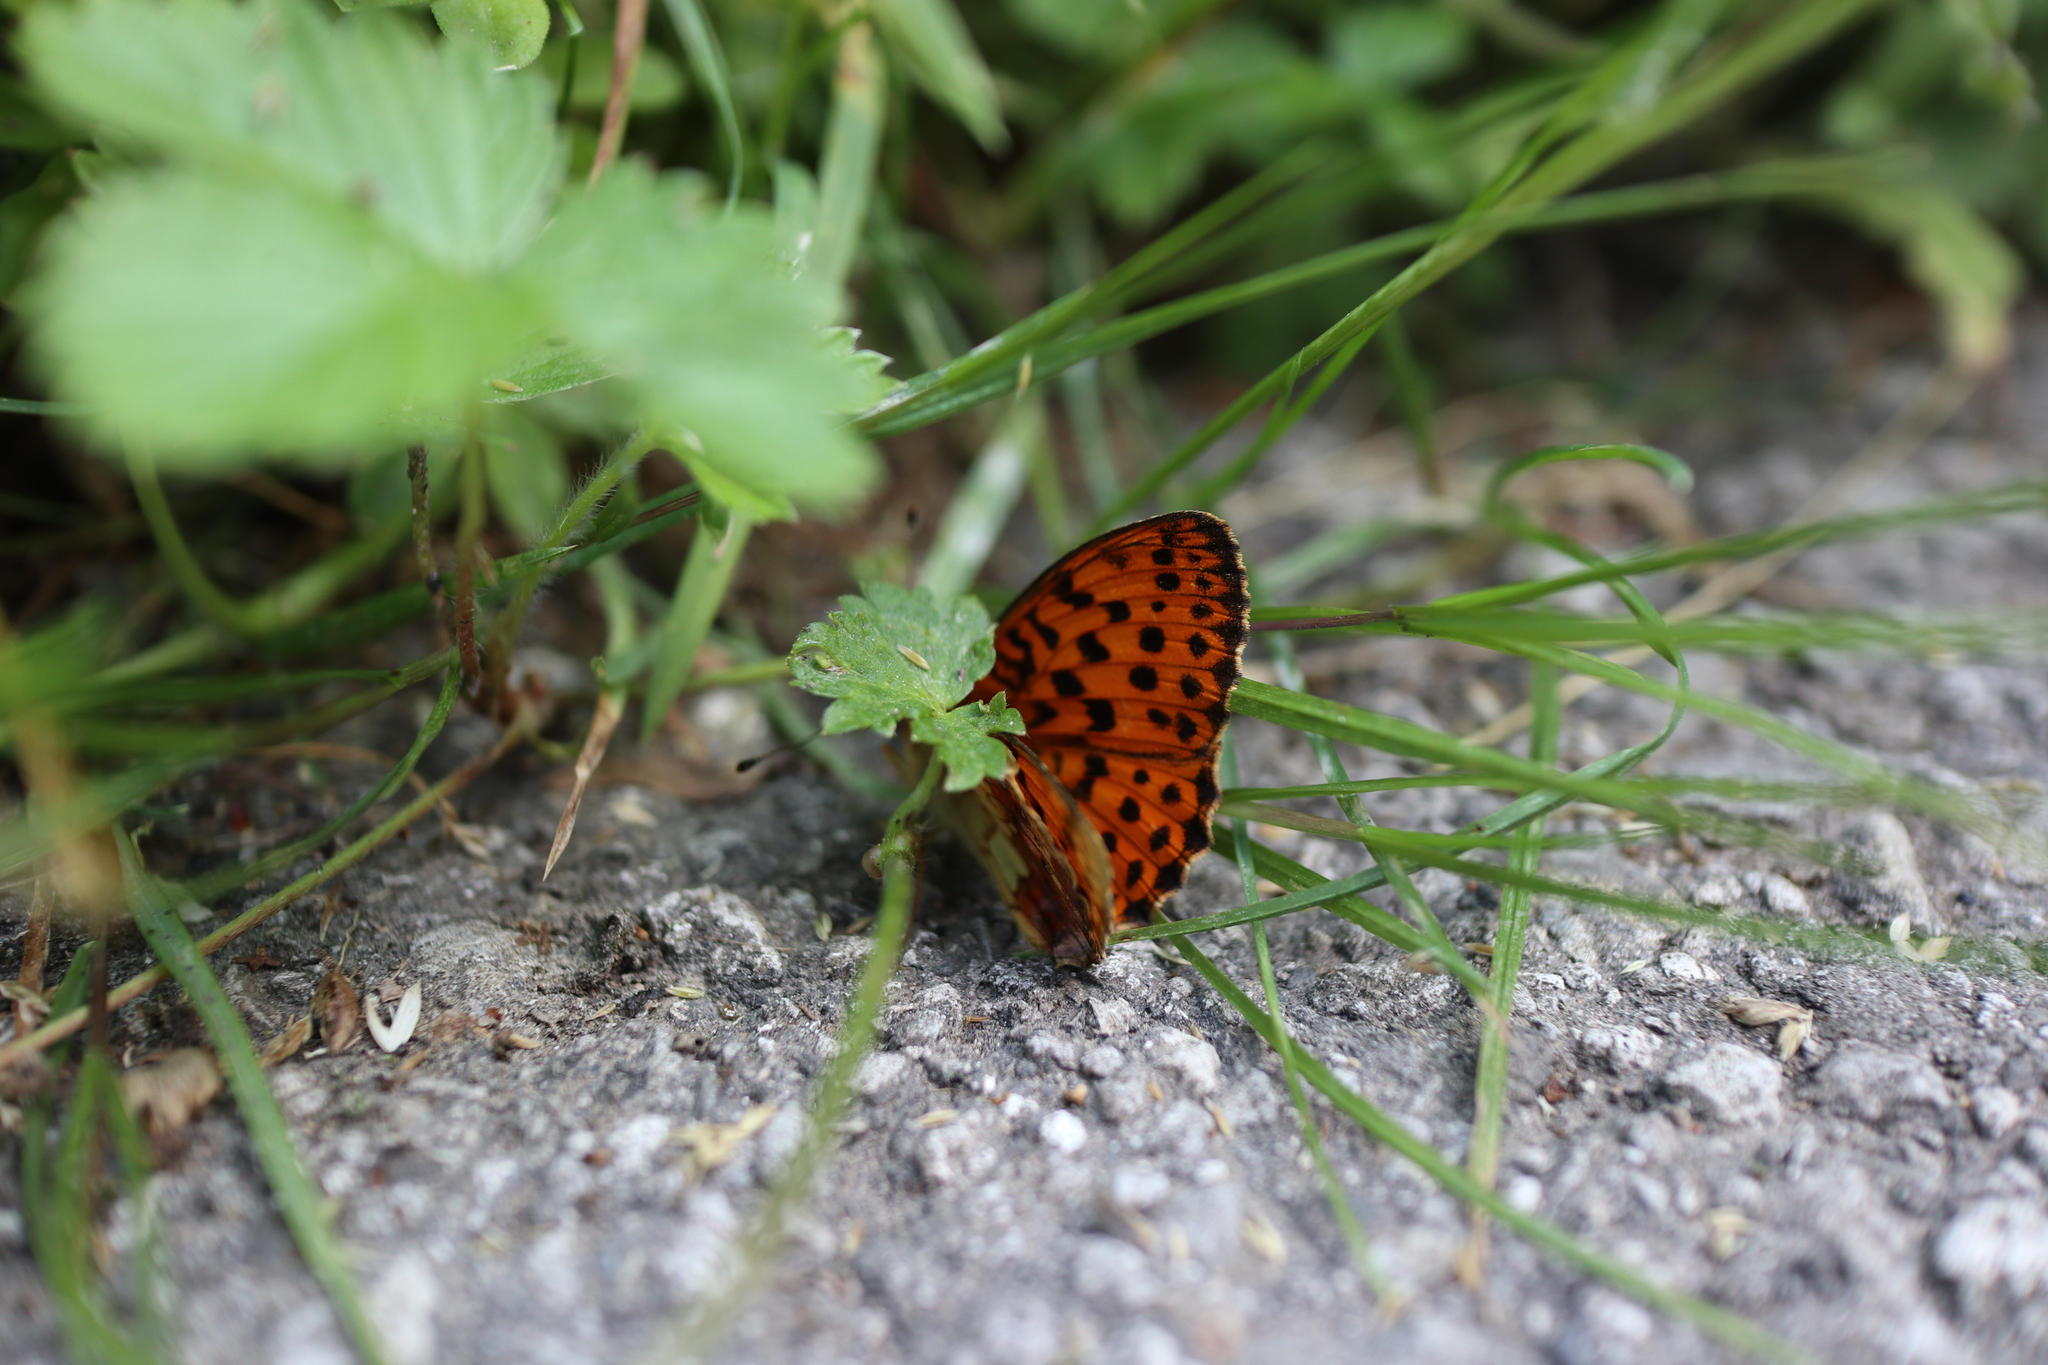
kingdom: Animalia
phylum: Arthropoda
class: Insecta
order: Lepidoptera
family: Nymphalidae
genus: Brenthis
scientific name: Brenthis daphne
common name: Marbled fritillary
